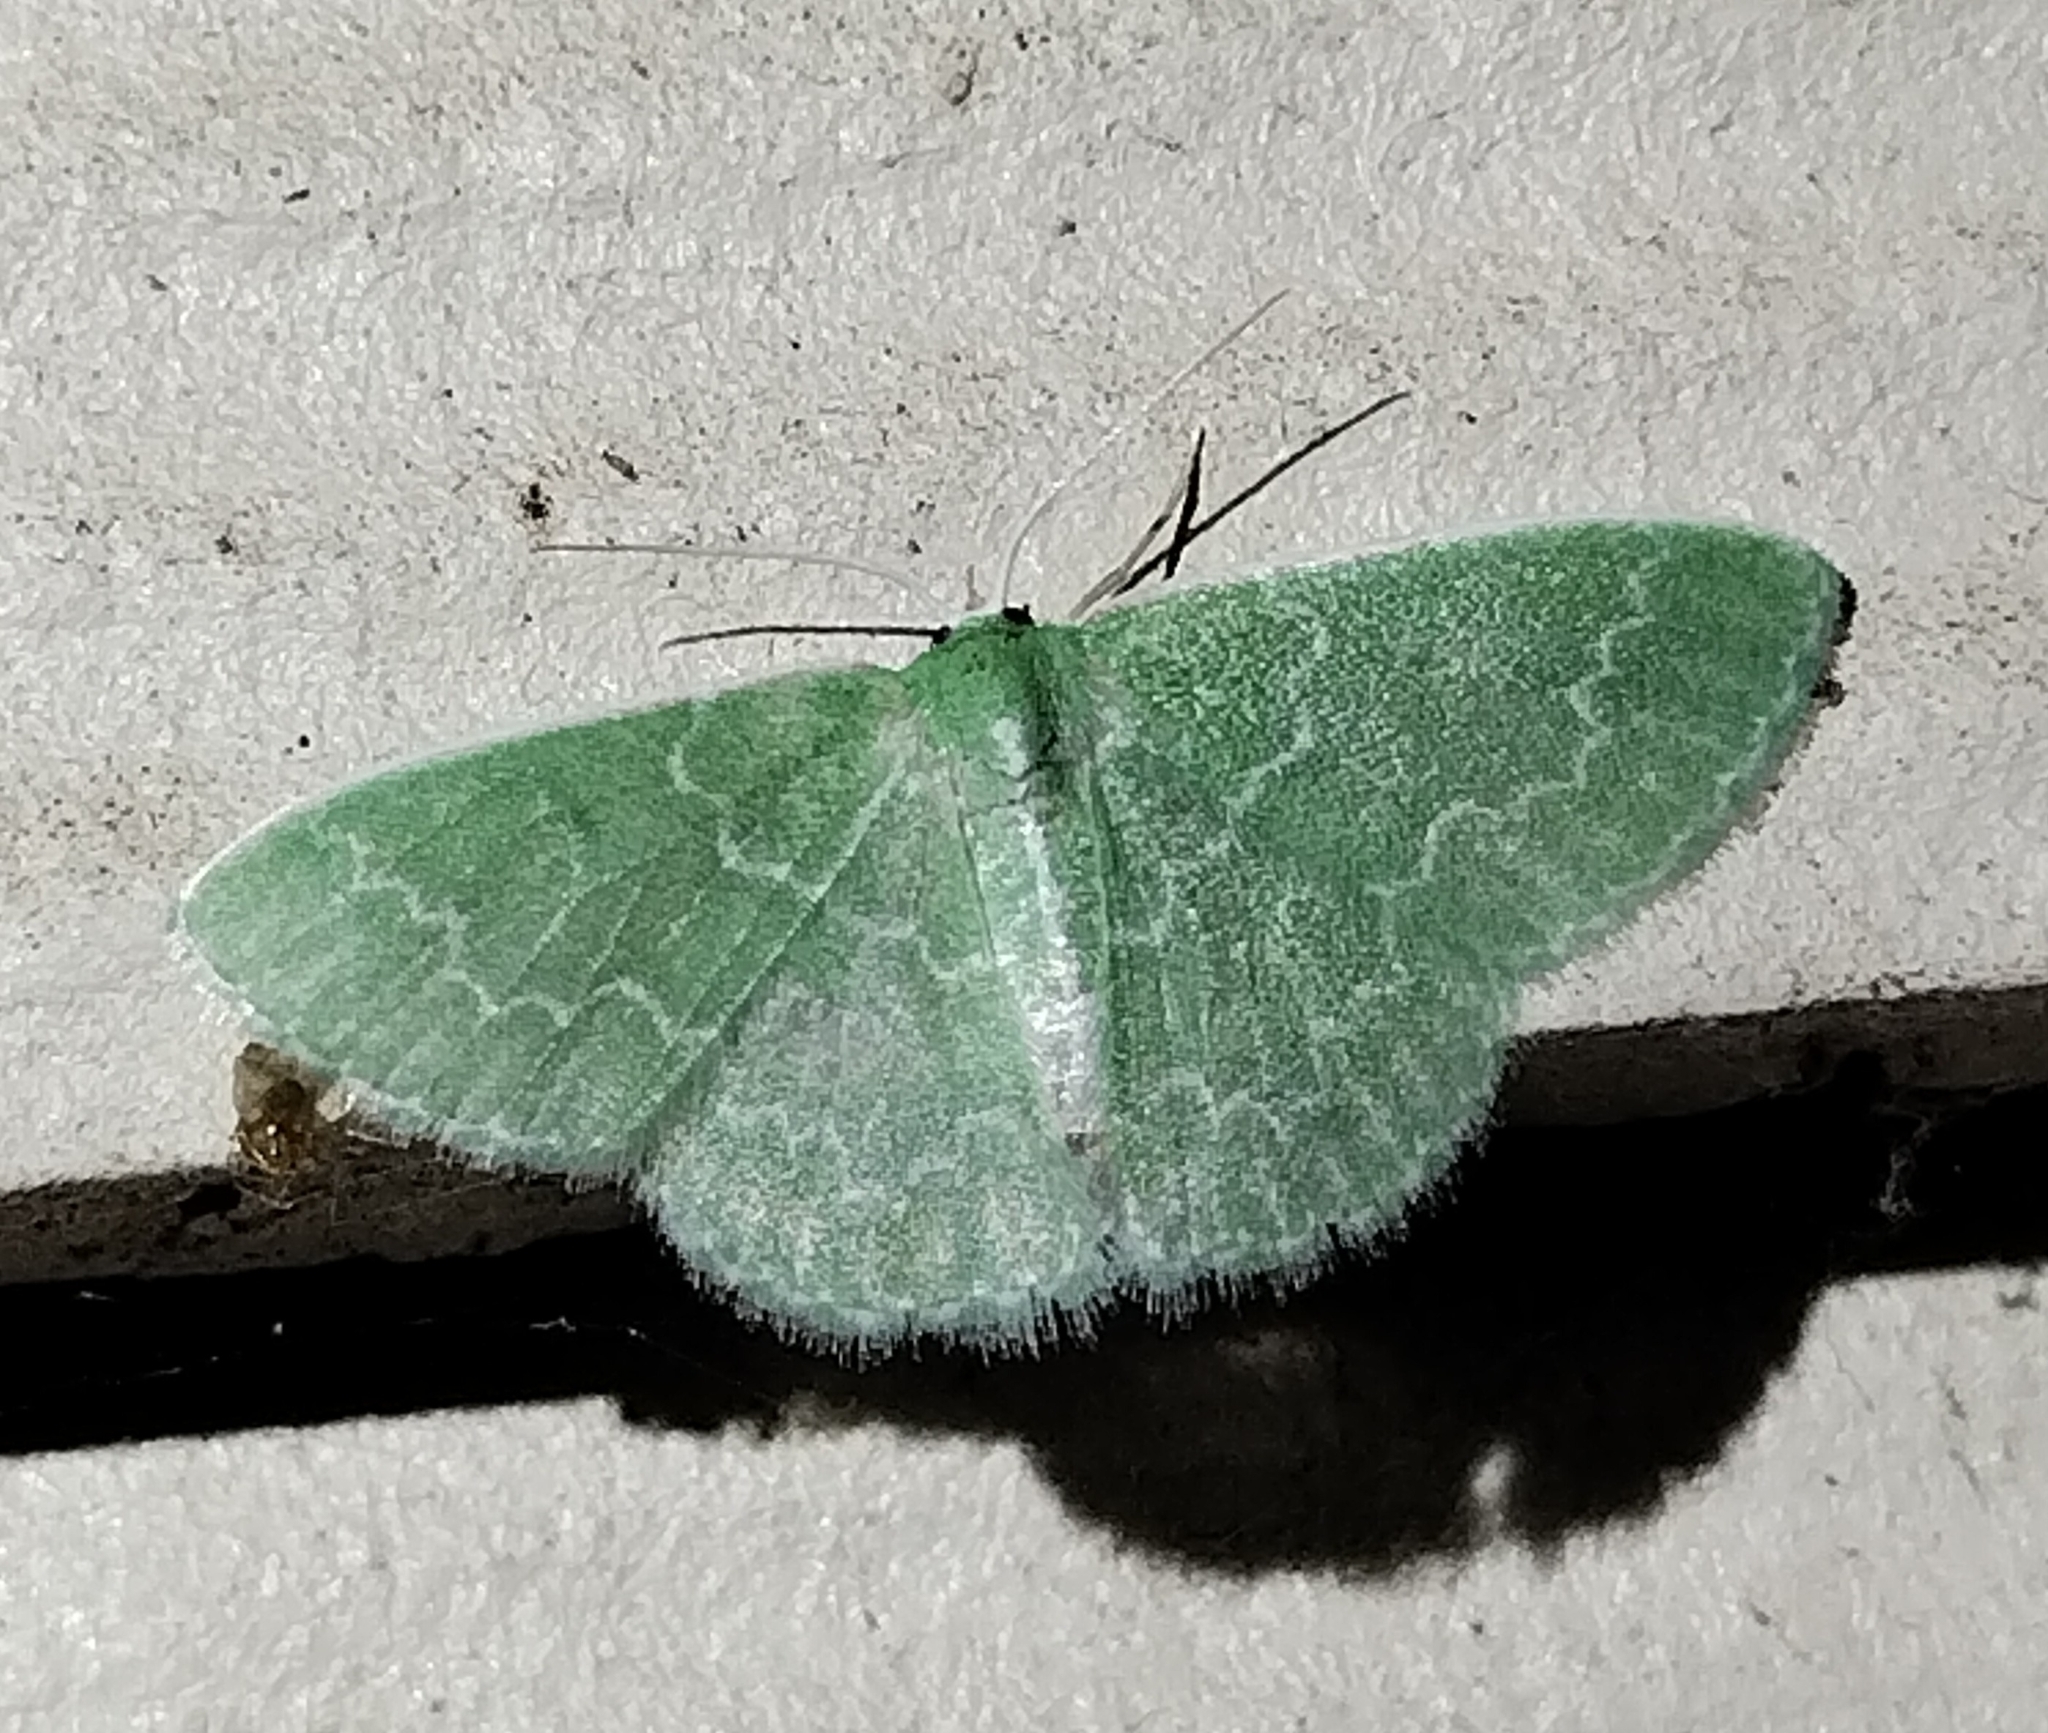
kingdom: Animalia
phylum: Arthropoda
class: Insecta
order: Lepidoptera
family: Geometridae
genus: Synchlora
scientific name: Synchlora frondaria
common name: Southern emerald
